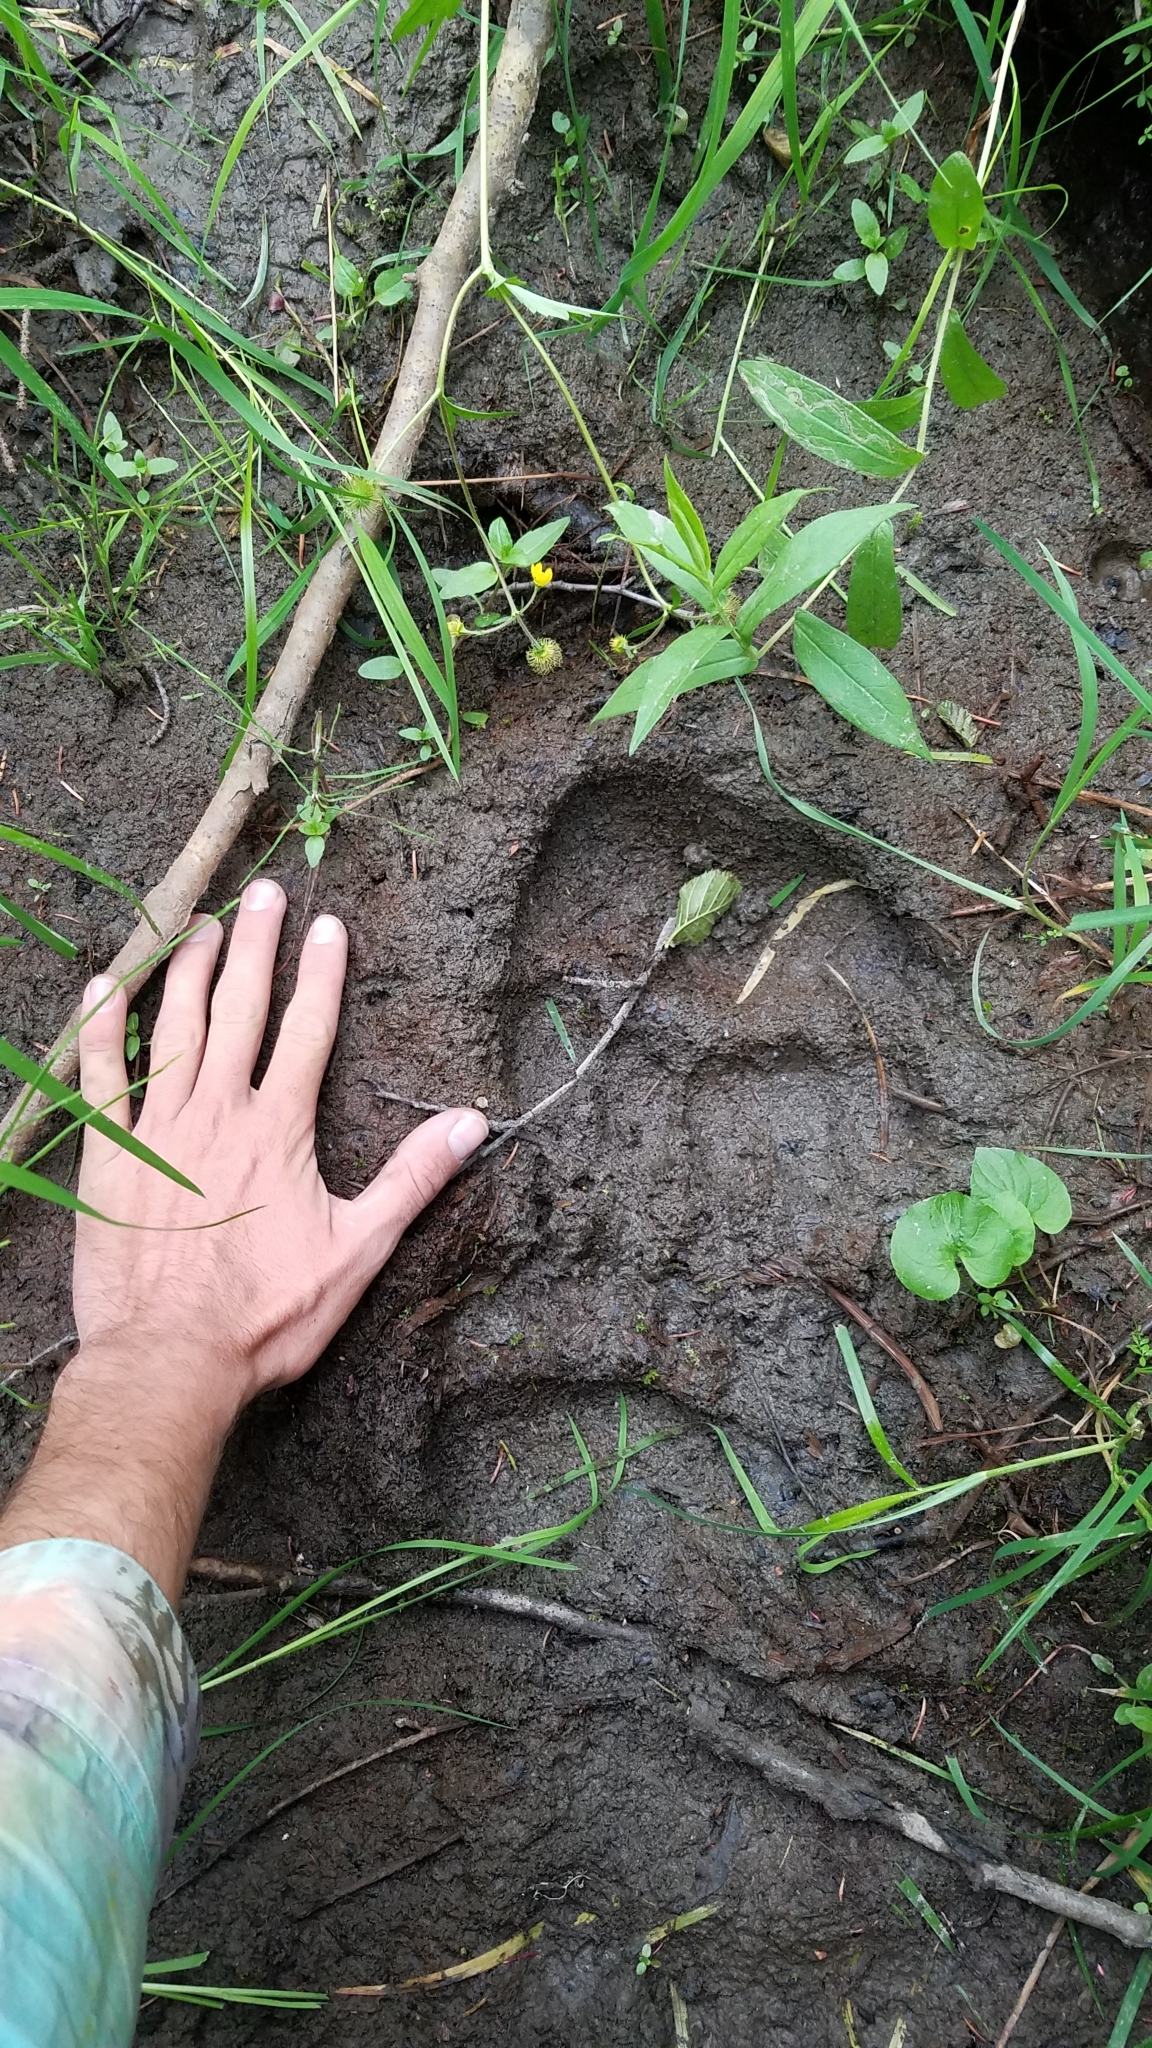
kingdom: Animalia
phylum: Chordata
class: Mammalia
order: Carnivora
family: Ursidae
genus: Ursus
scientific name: Ursus arctos
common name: Brown bear
